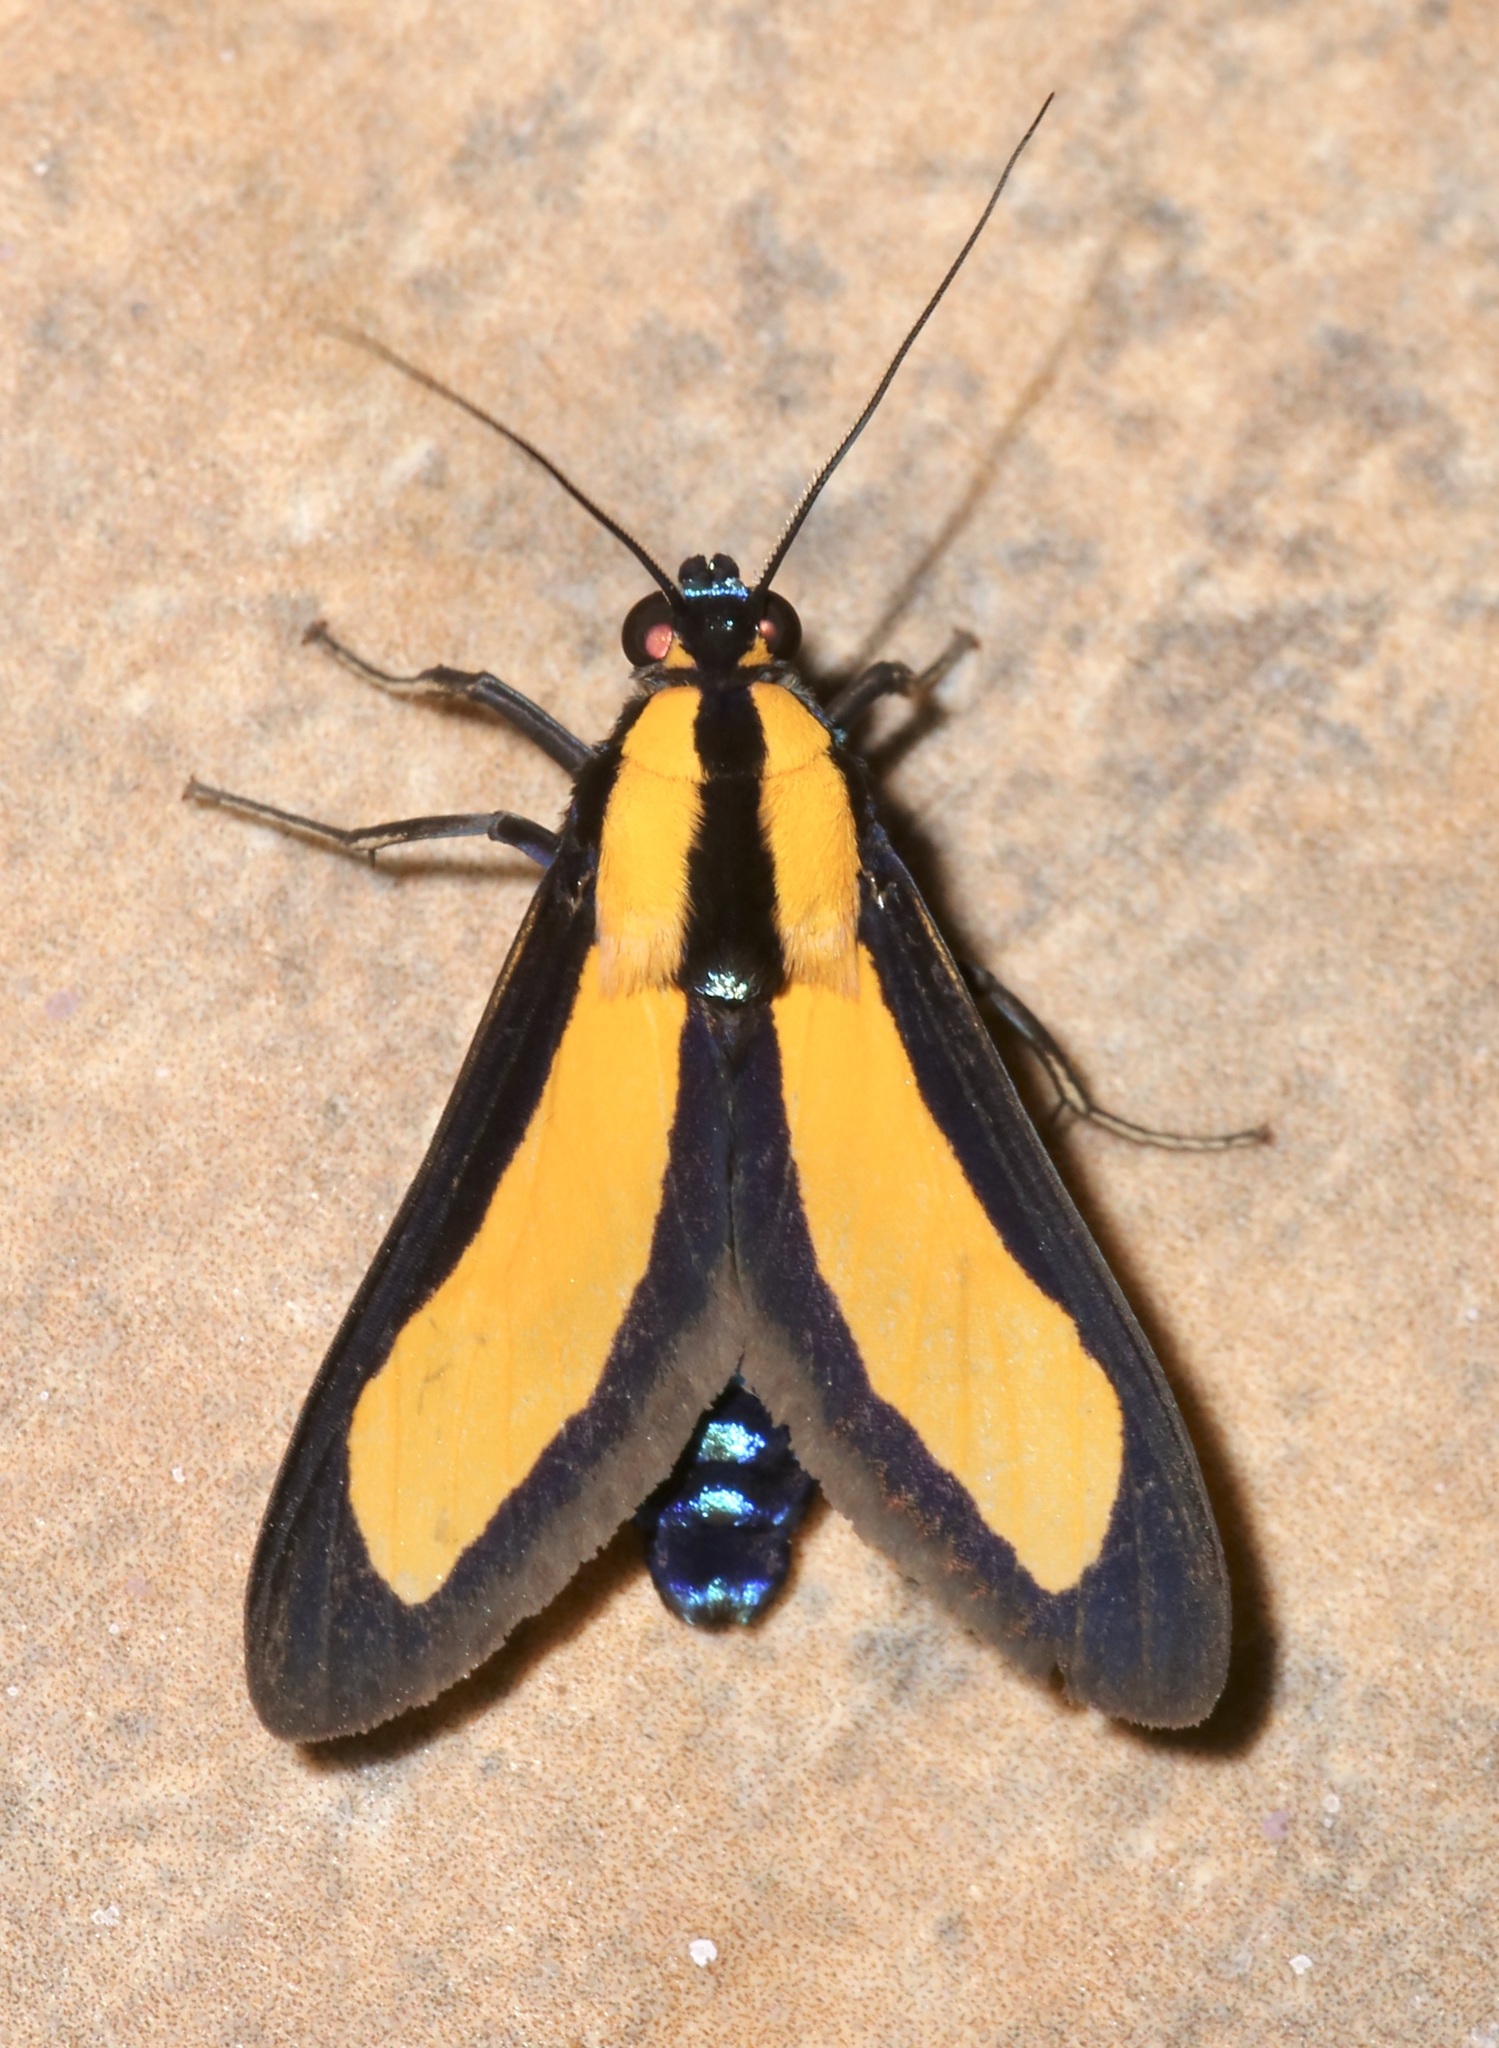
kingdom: Animalia
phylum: Arthropoda
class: Insecta
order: Lepidoptera
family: Erebidae
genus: Ormetica
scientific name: Ormetica flavobasalis
